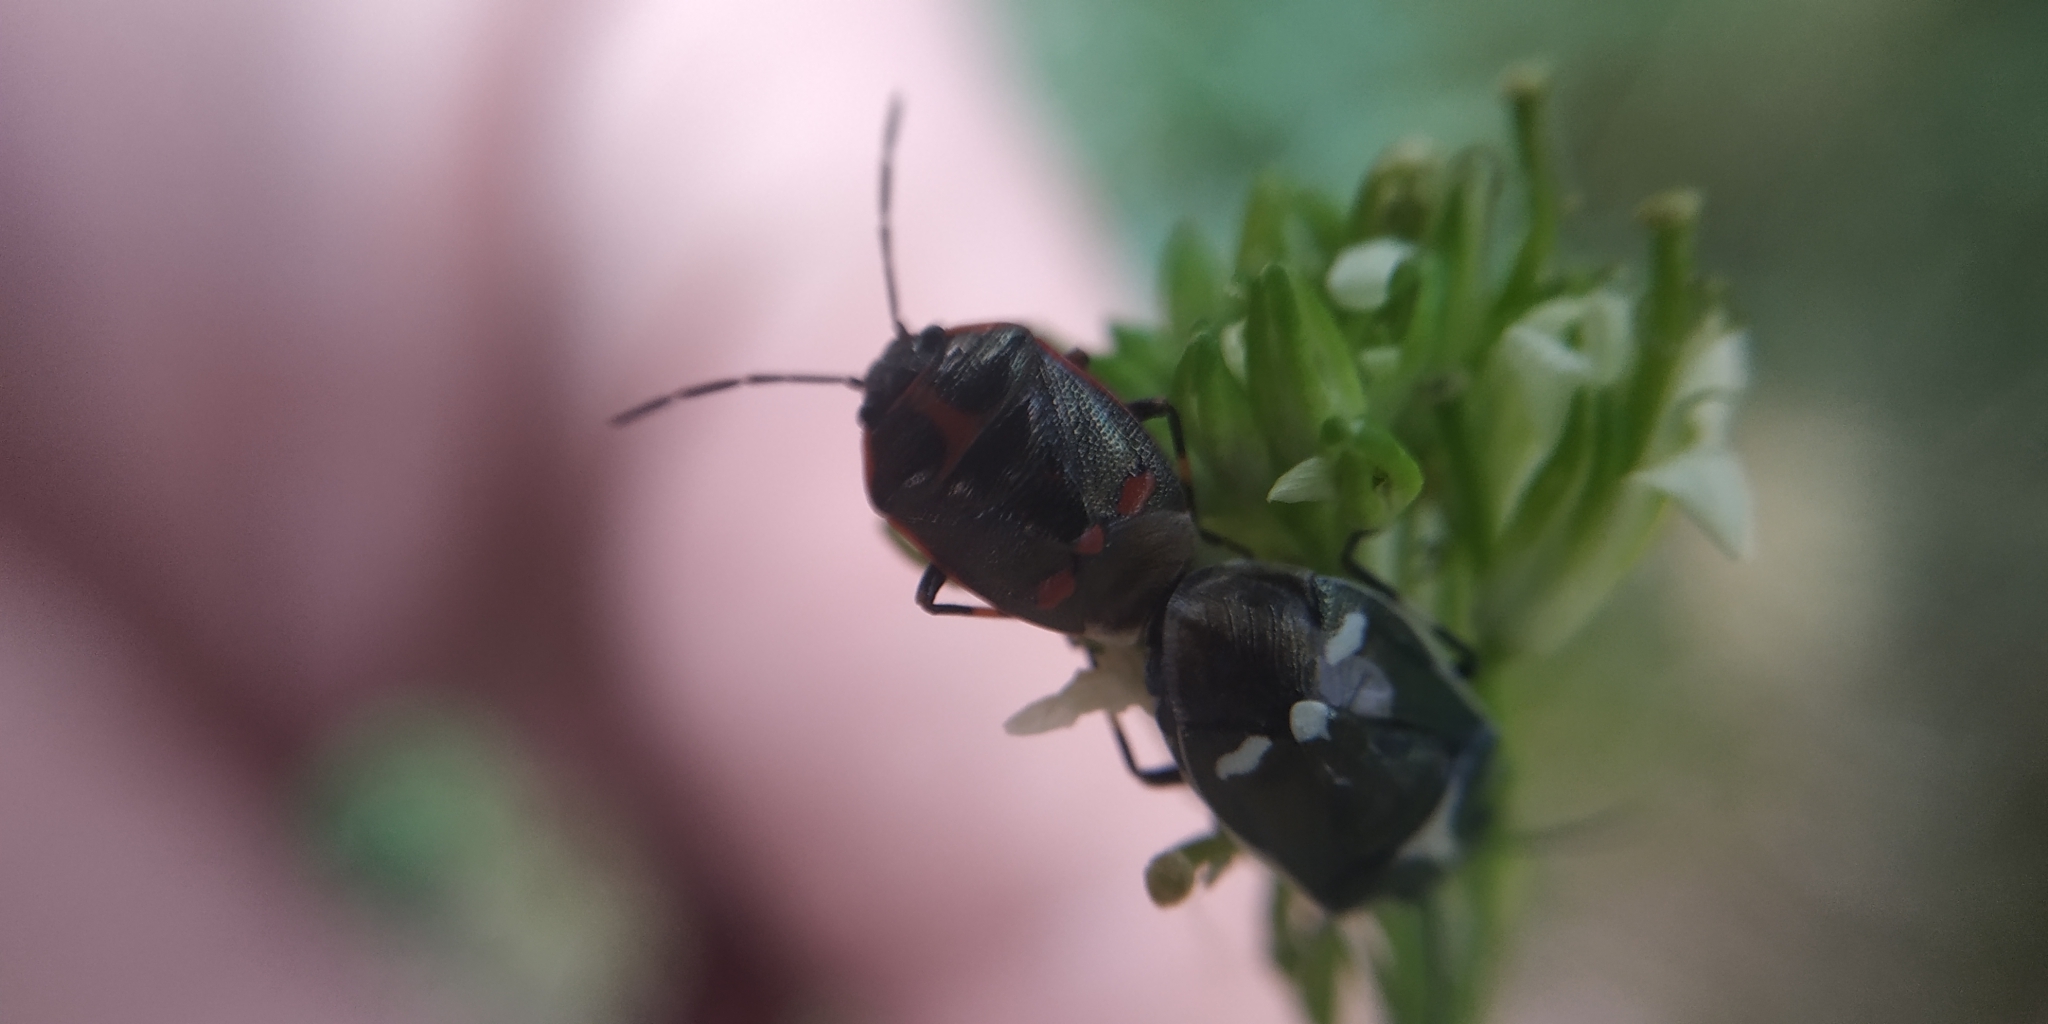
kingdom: Animalia
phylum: Arthropoda
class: Insecta
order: Hemiptera
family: Pentatomidae
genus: Eurydema
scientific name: Eurydema oleracea
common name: Cabbage bug
